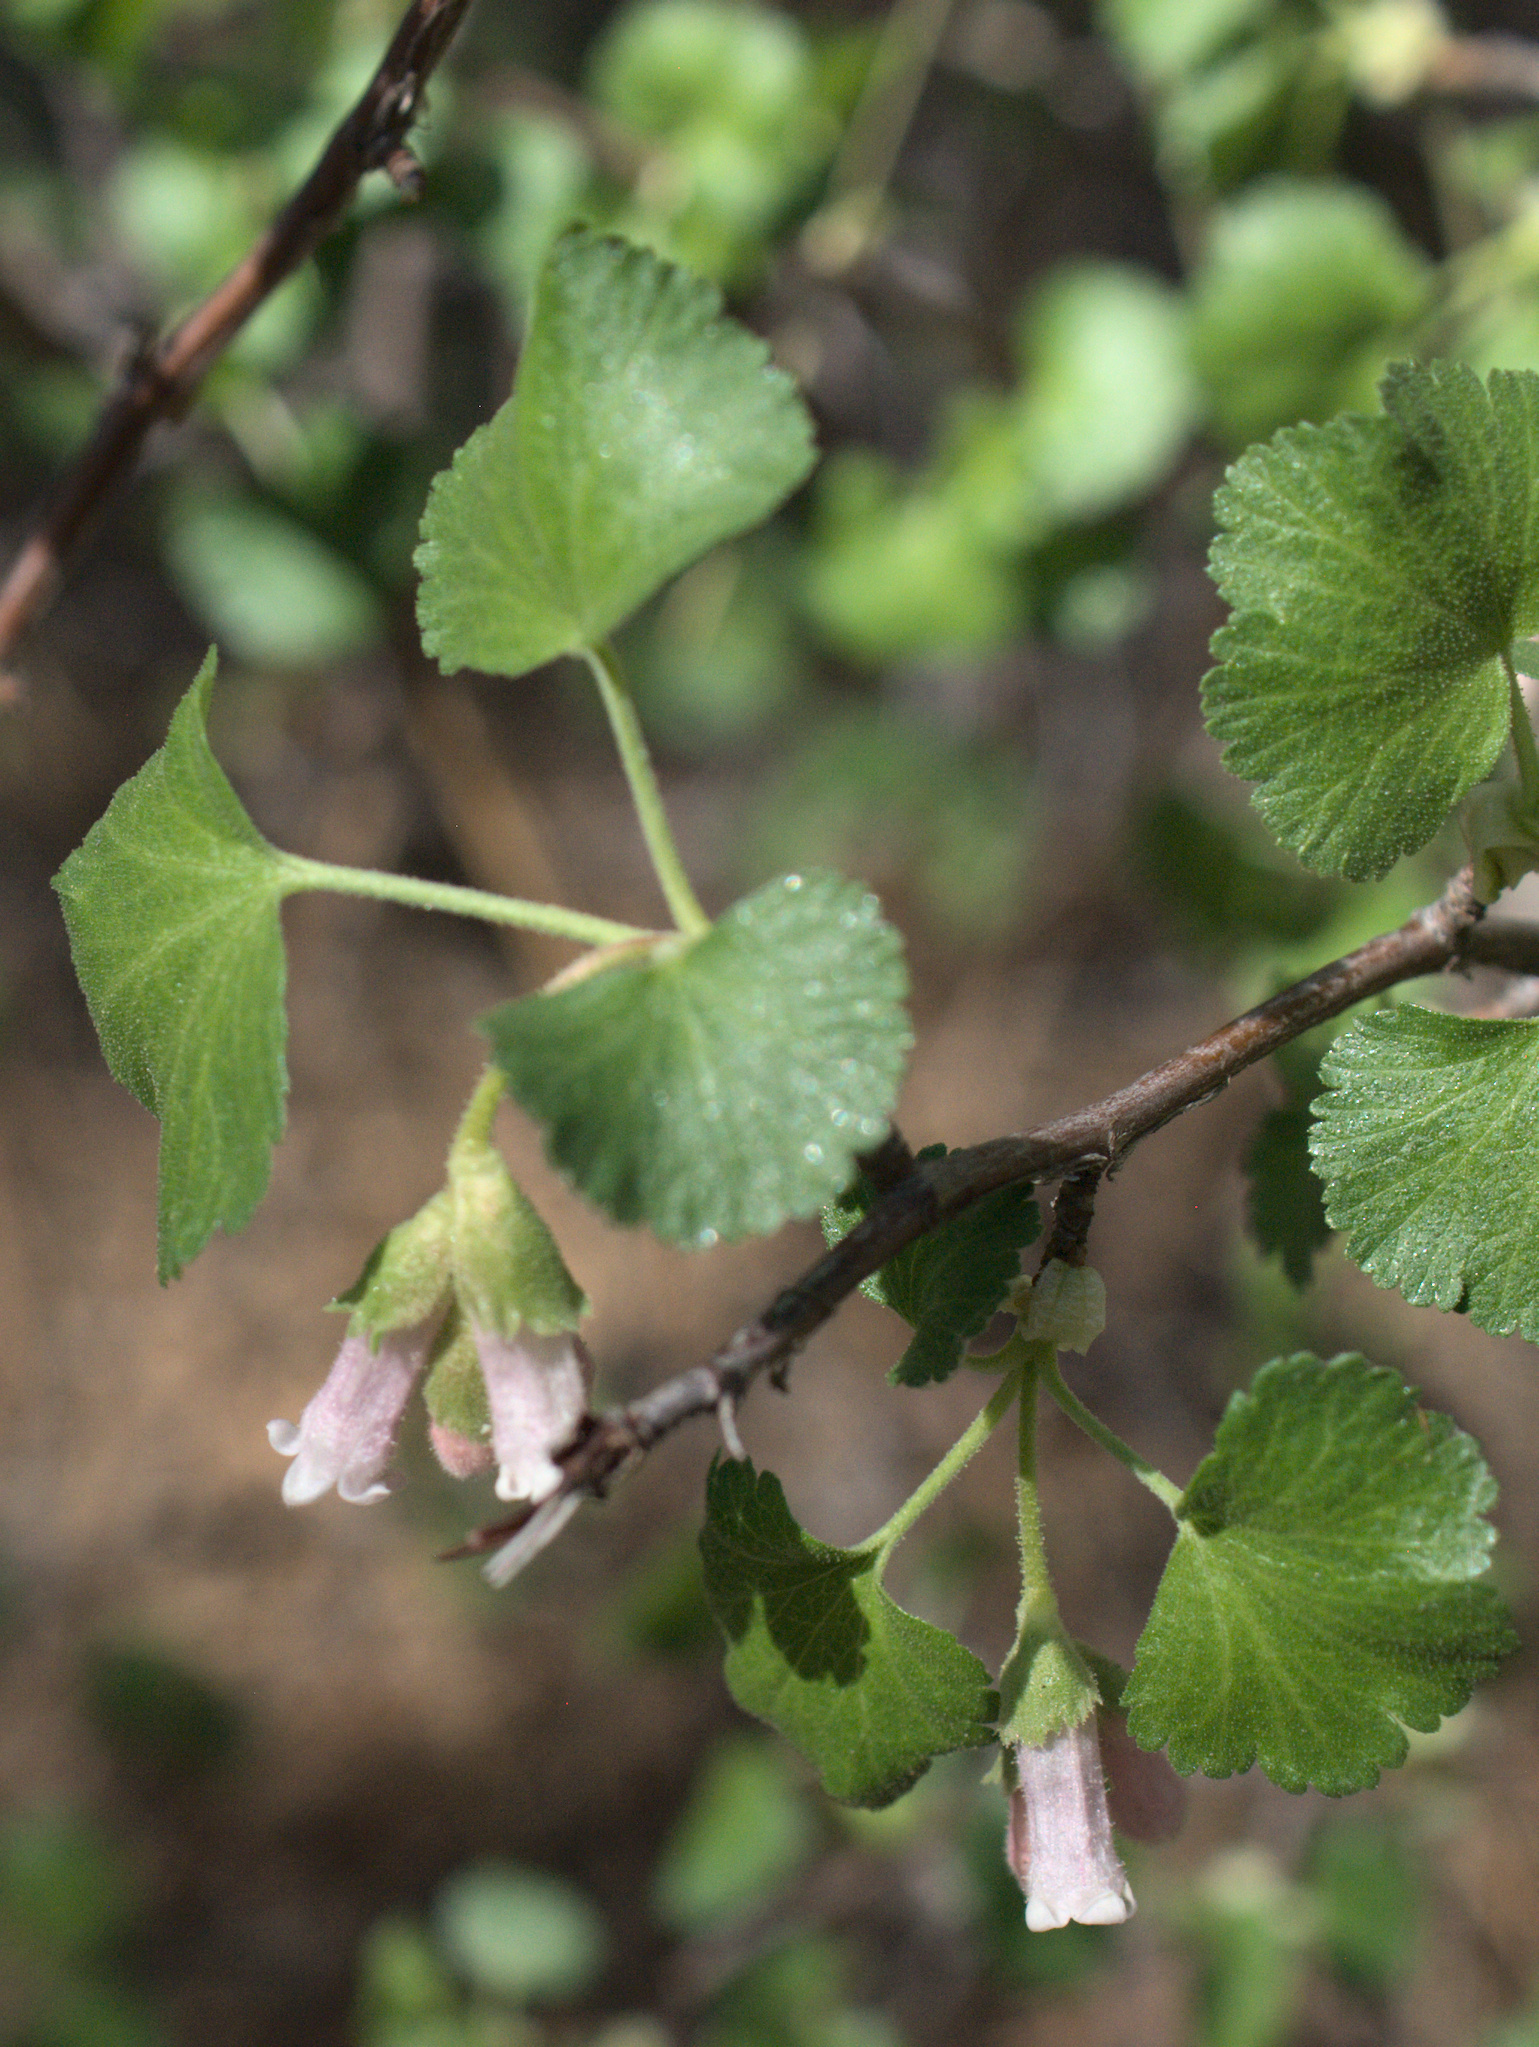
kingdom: Plantae
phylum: Tracheophyta
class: Magnoliopsida
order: Saxifragales
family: Grossulariaceae
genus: Ribes
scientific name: Ribes cereum
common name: Wax currant
